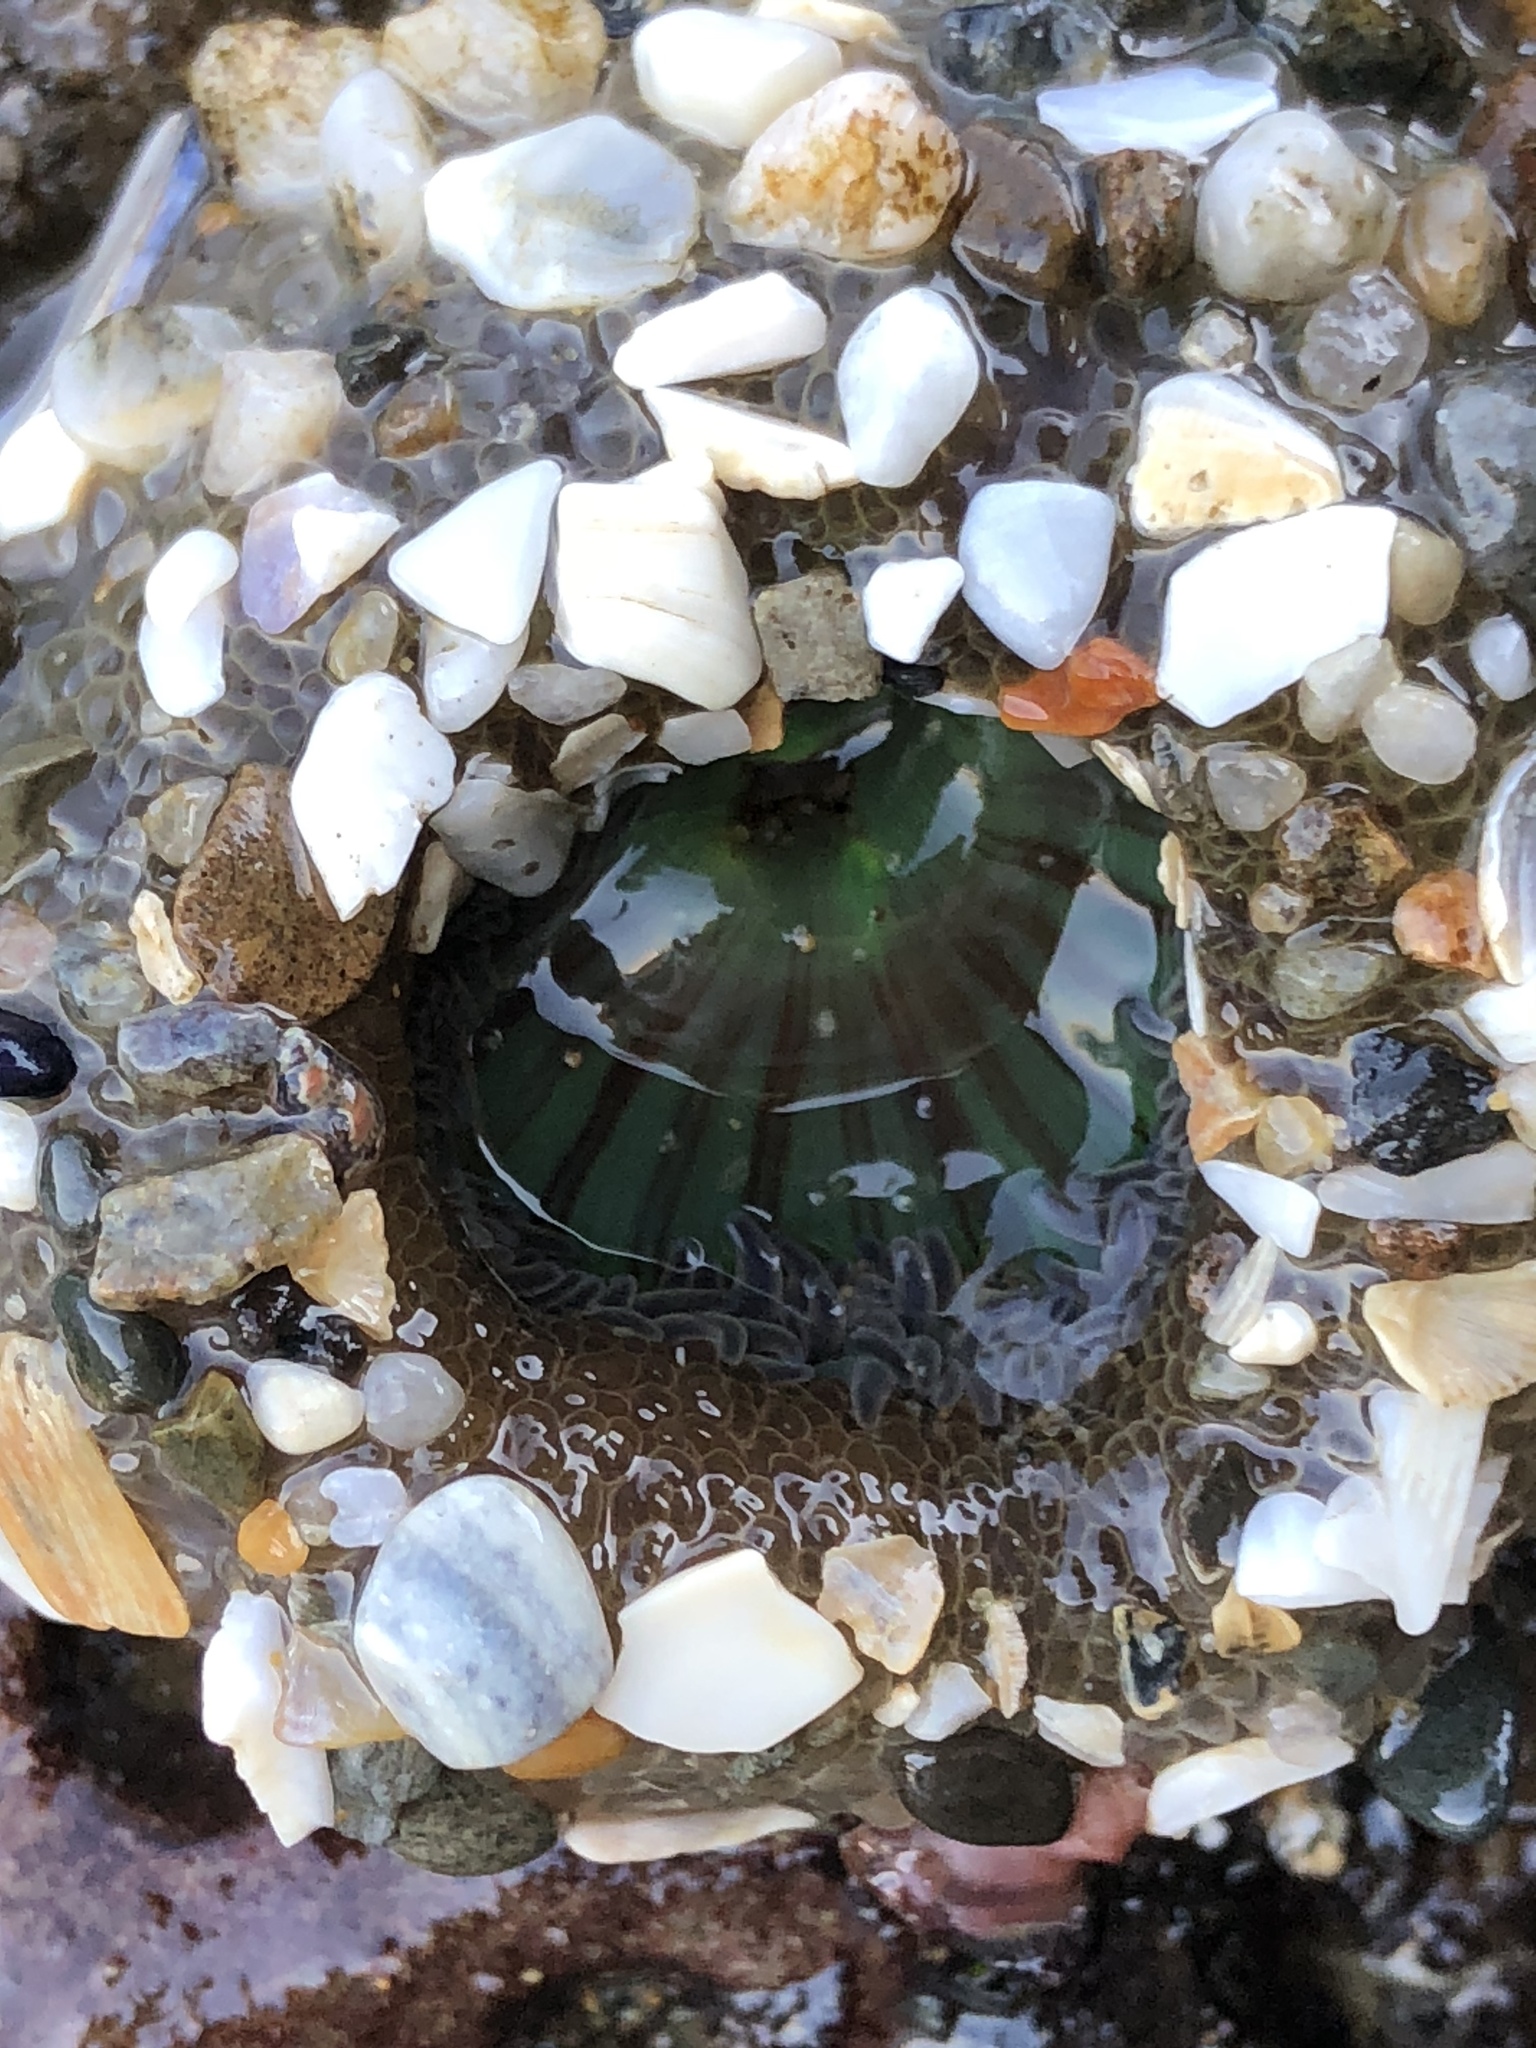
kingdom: Animalia
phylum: Cnidaria
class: Anthozoa
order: Actiniaria
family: Actiniidae
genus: Anthopleura
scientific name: Anthopleura elegantissima
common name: Clonal anemone
